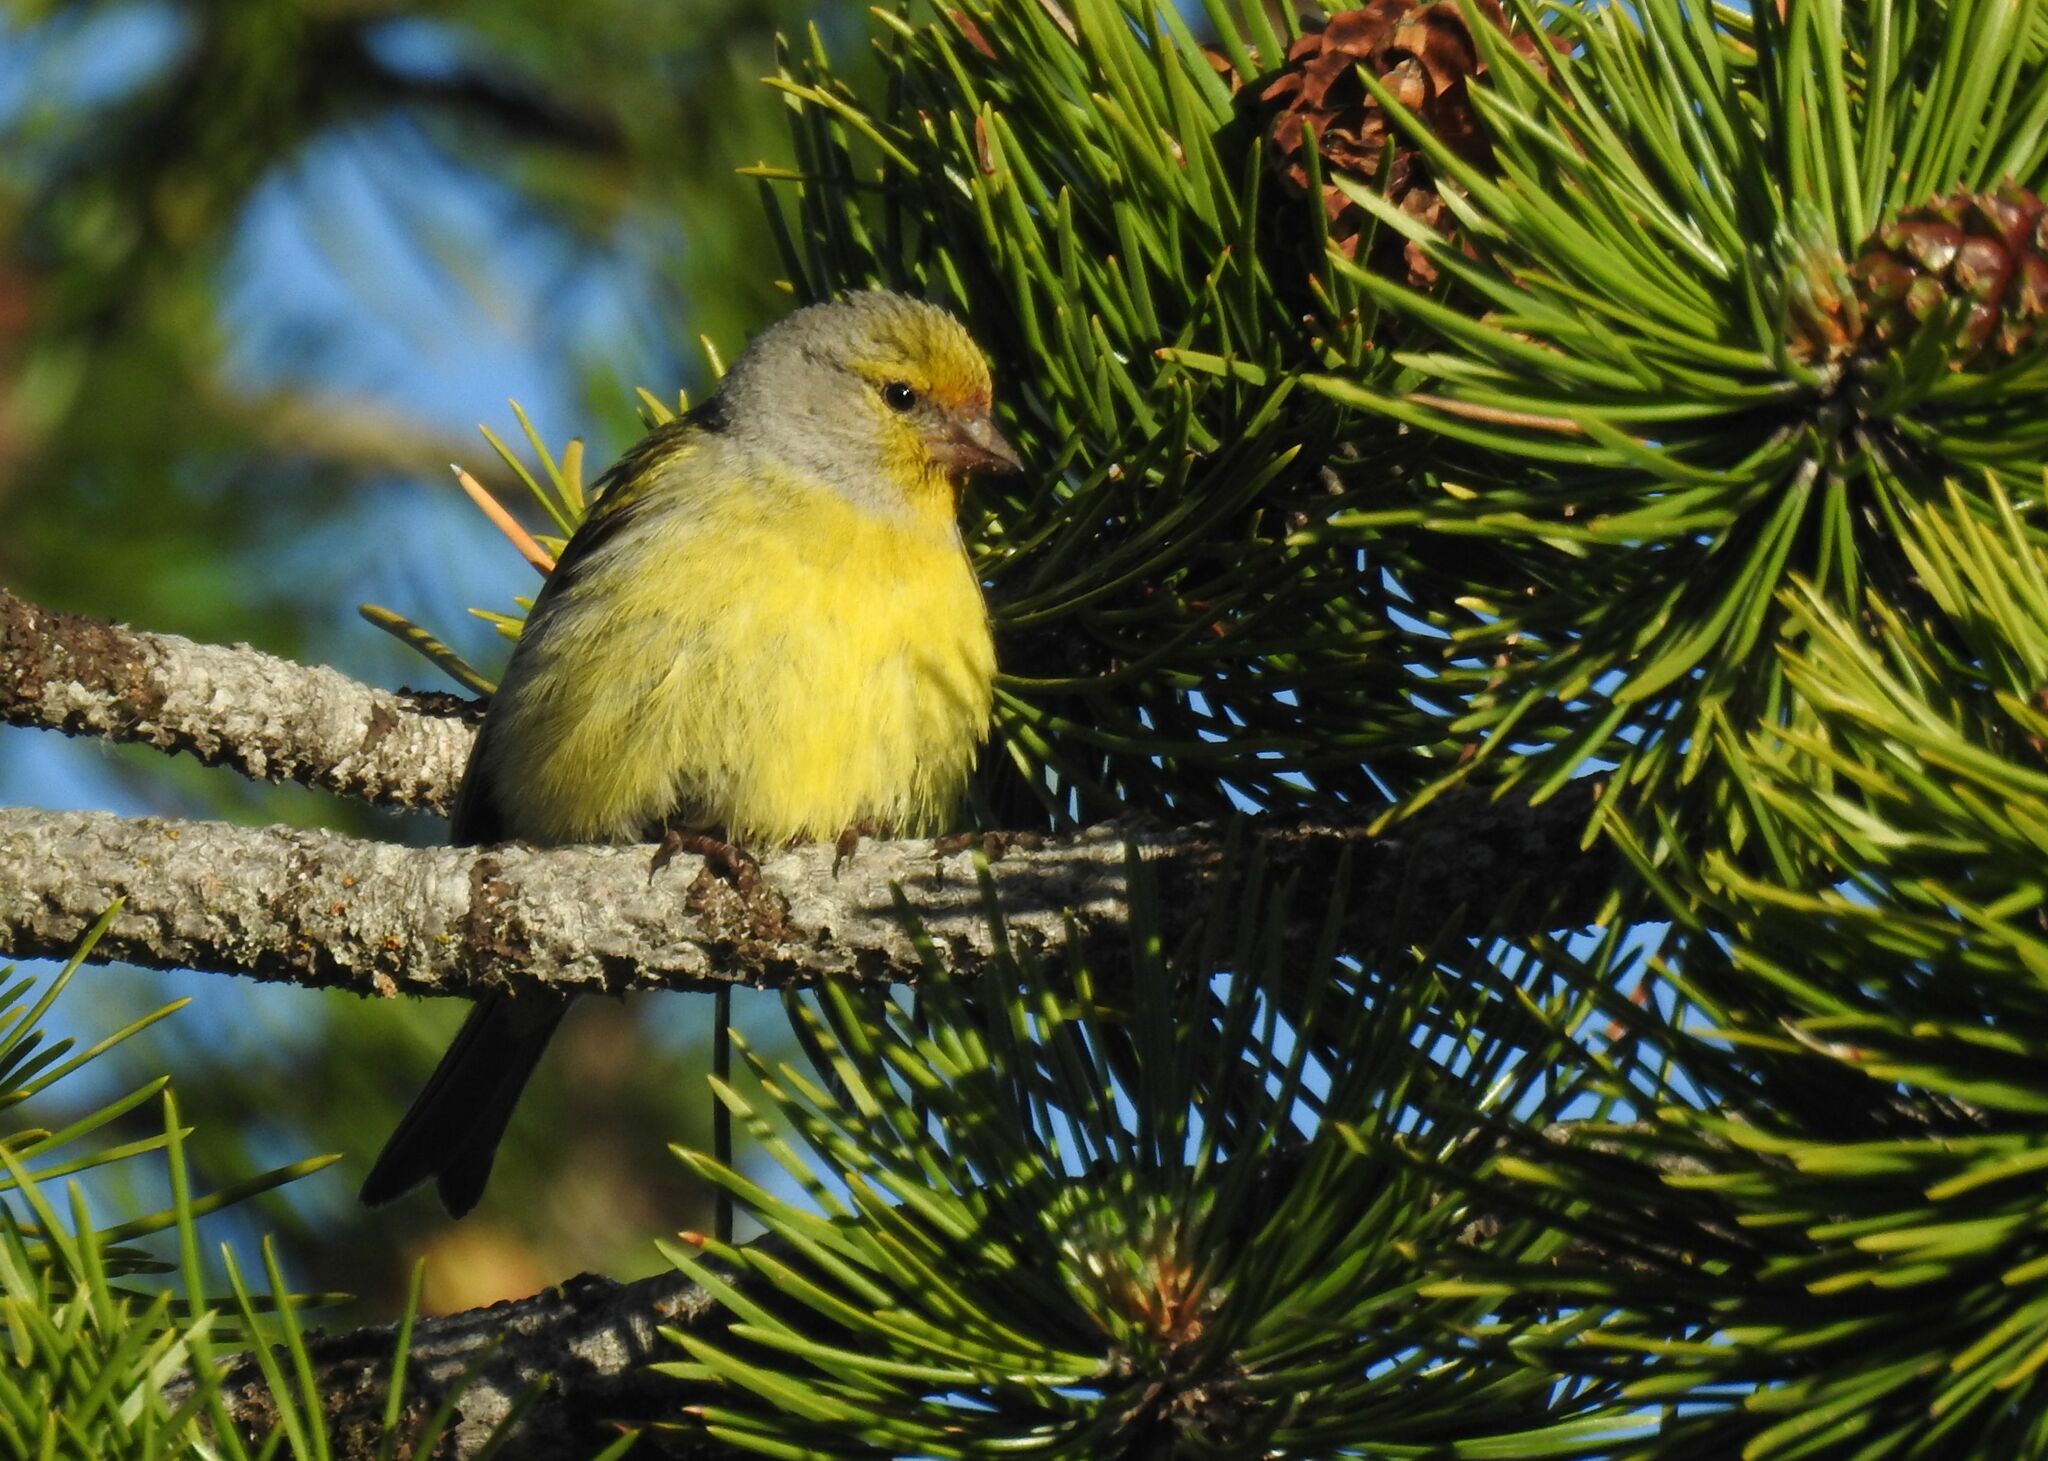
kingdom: Animalia
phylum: Chordata
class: Aves
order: Passeriformes
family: Fringillidae
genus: Carduelis
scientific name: Carduelis citrinella
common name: Citril finch
